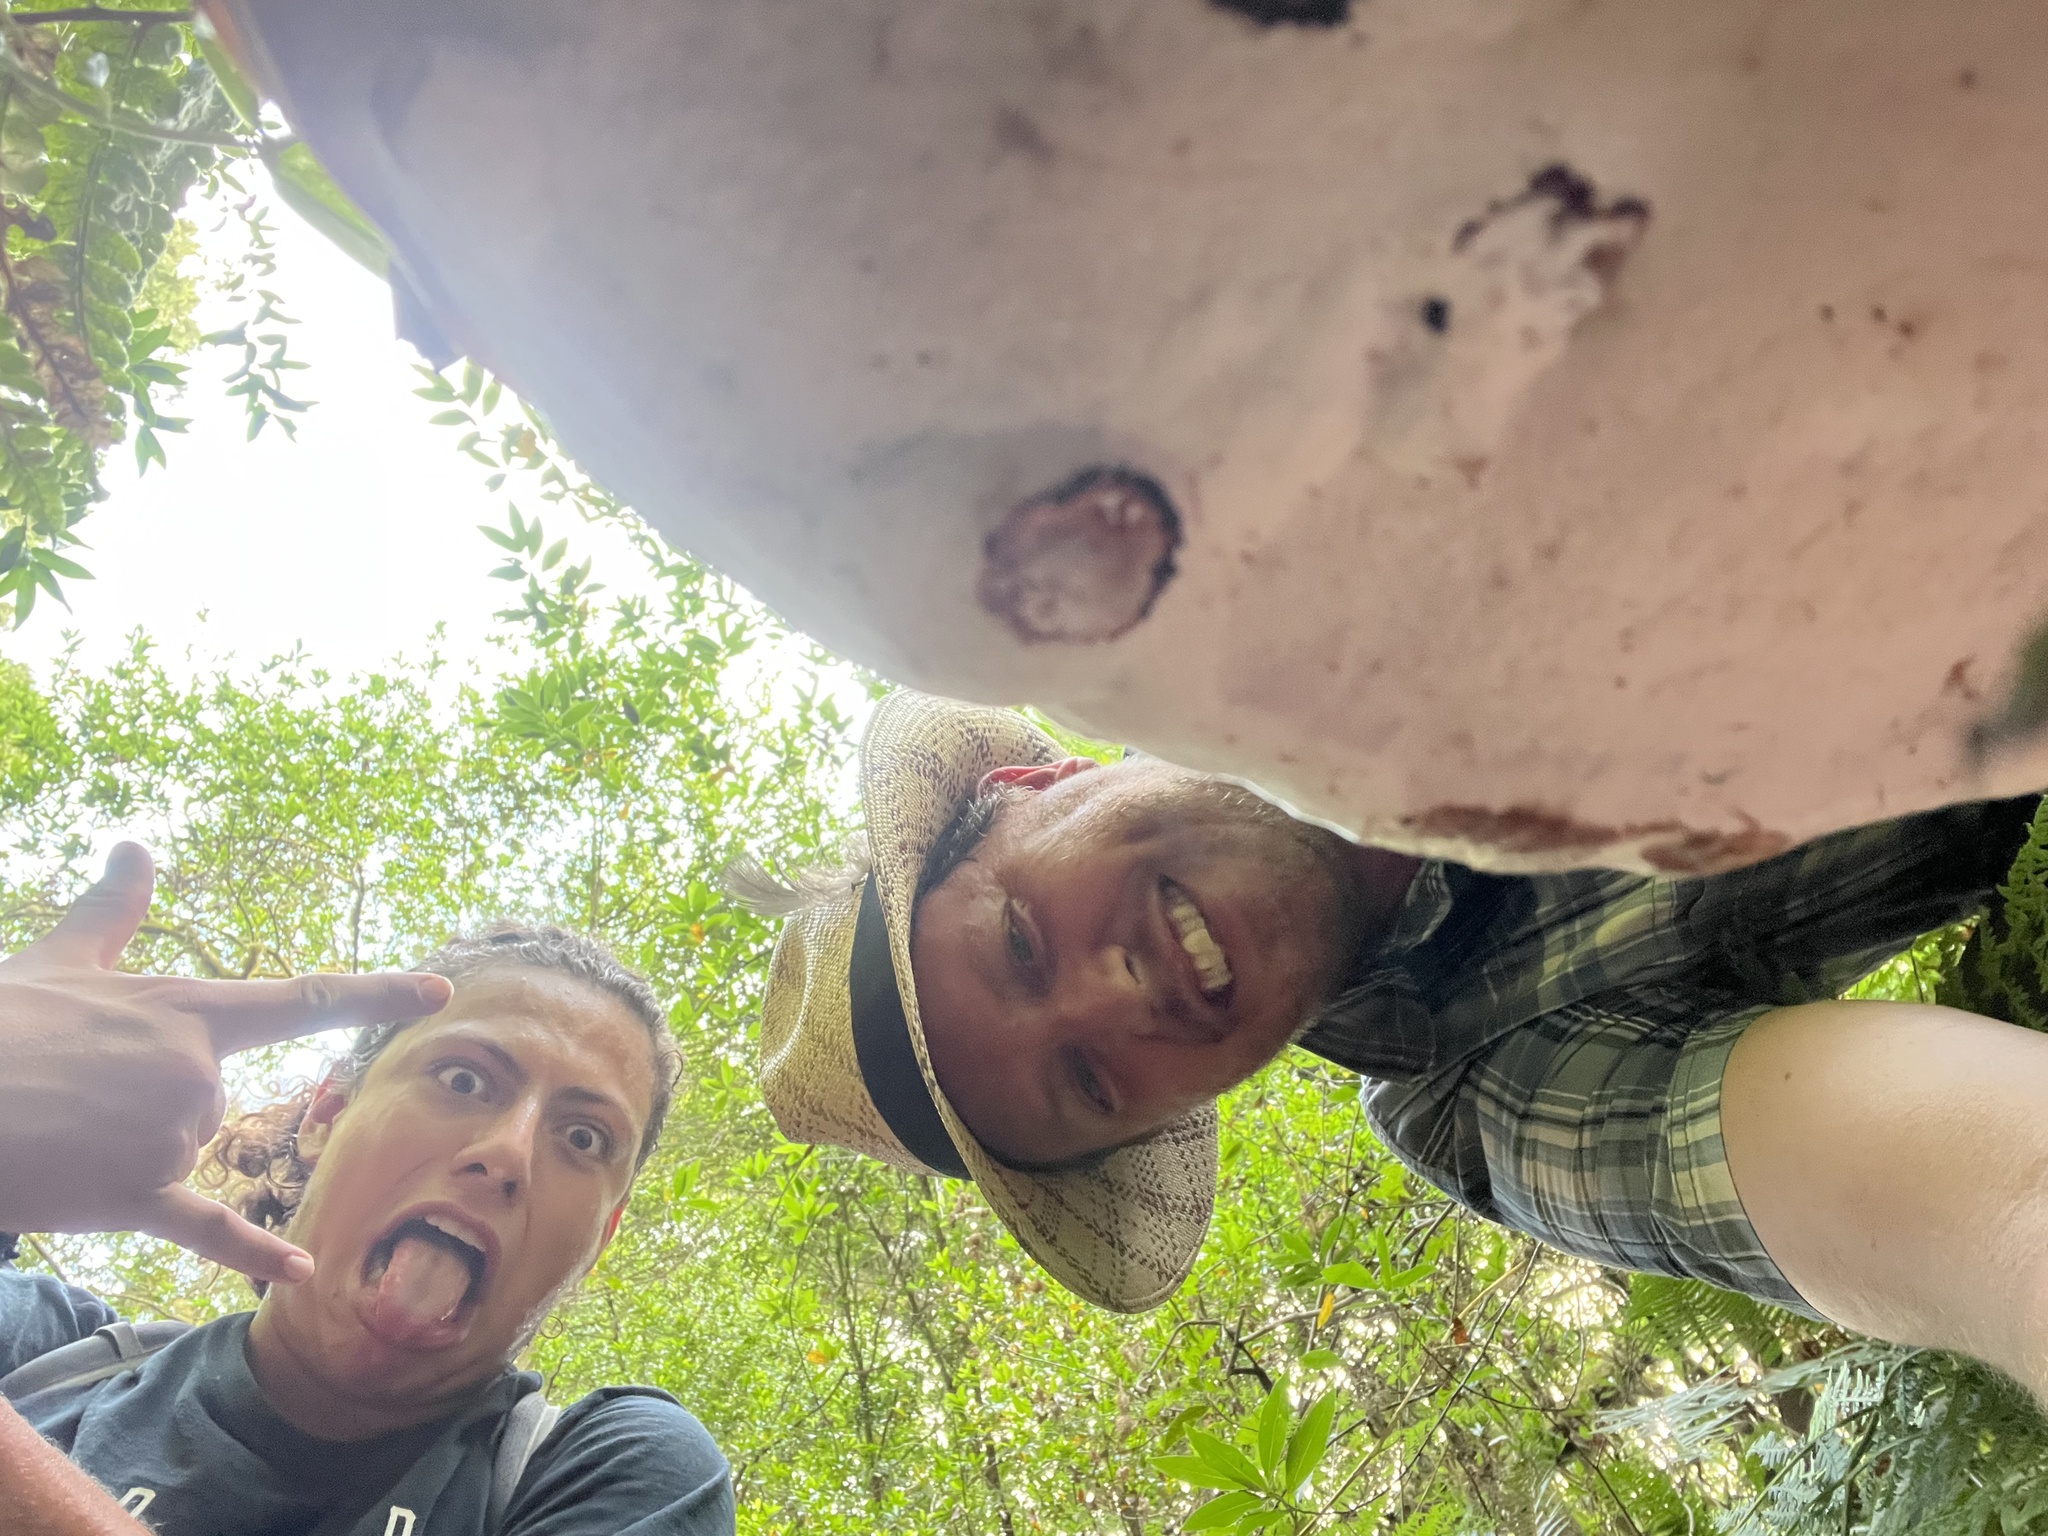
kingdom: Fungi
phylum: Basidiomycota
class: Agaricomycetes
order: Polyporales
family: Polyporaceae
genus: Ganoderma
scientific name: Ganoderma brownii
